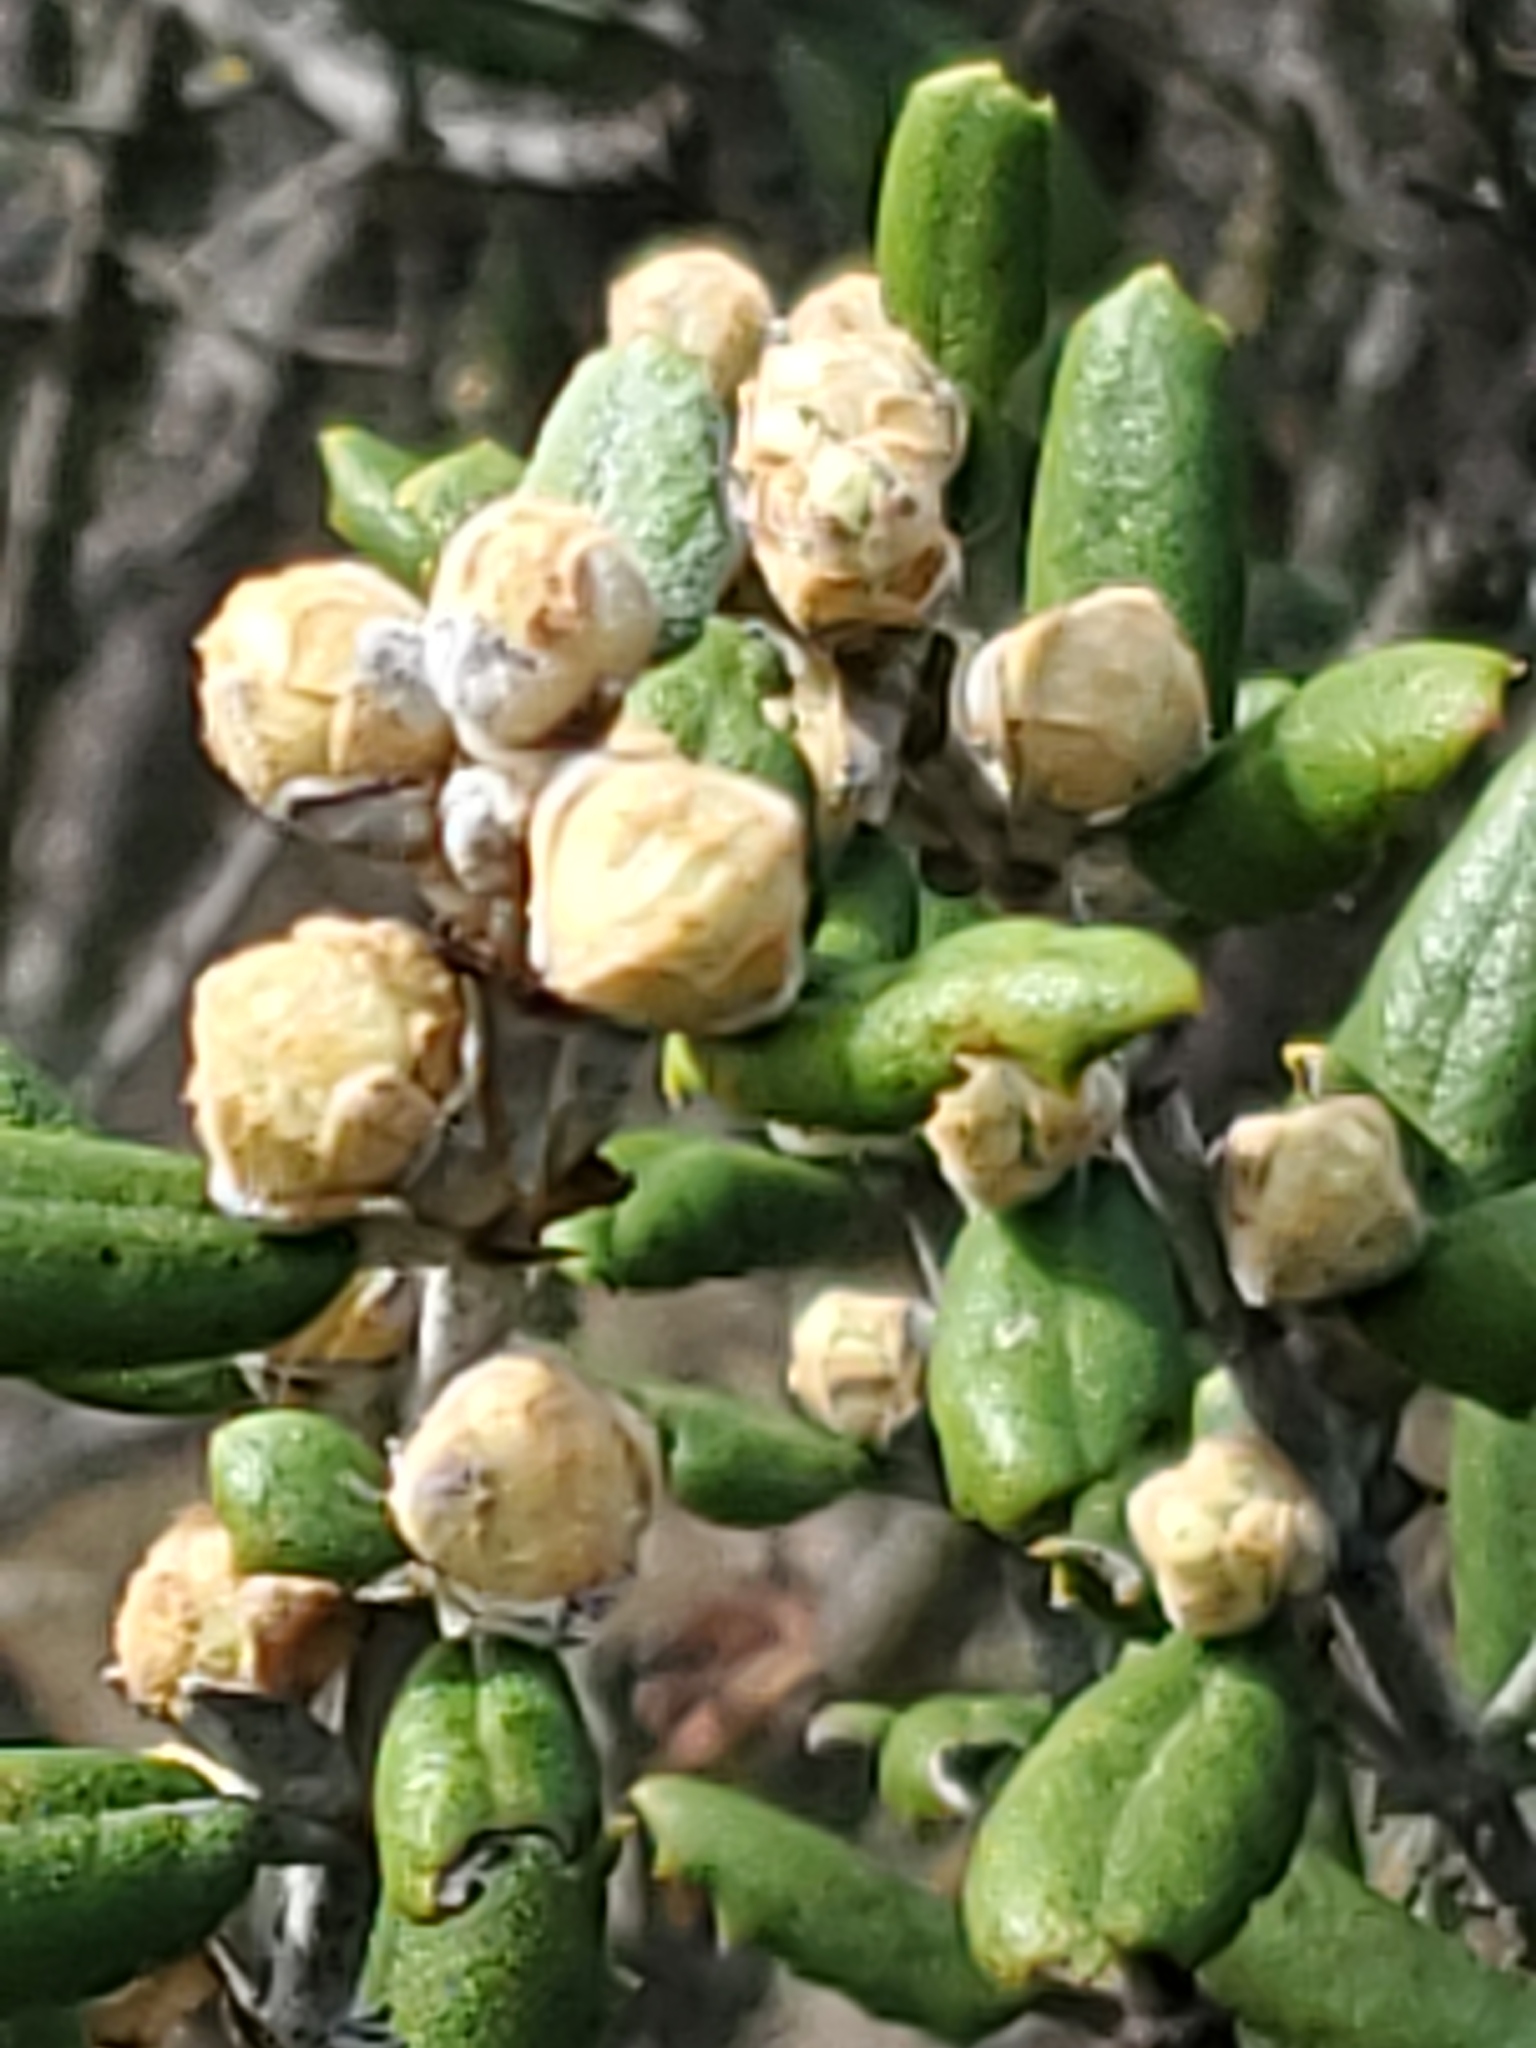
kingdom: Plantae
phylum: Tracheophyta
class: Magnoliopsida
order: Rosales
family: Rhamnaceae
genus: Ceanothus
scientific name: Ceanothus crassifolius
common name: Hoaryleaf ceanothus
